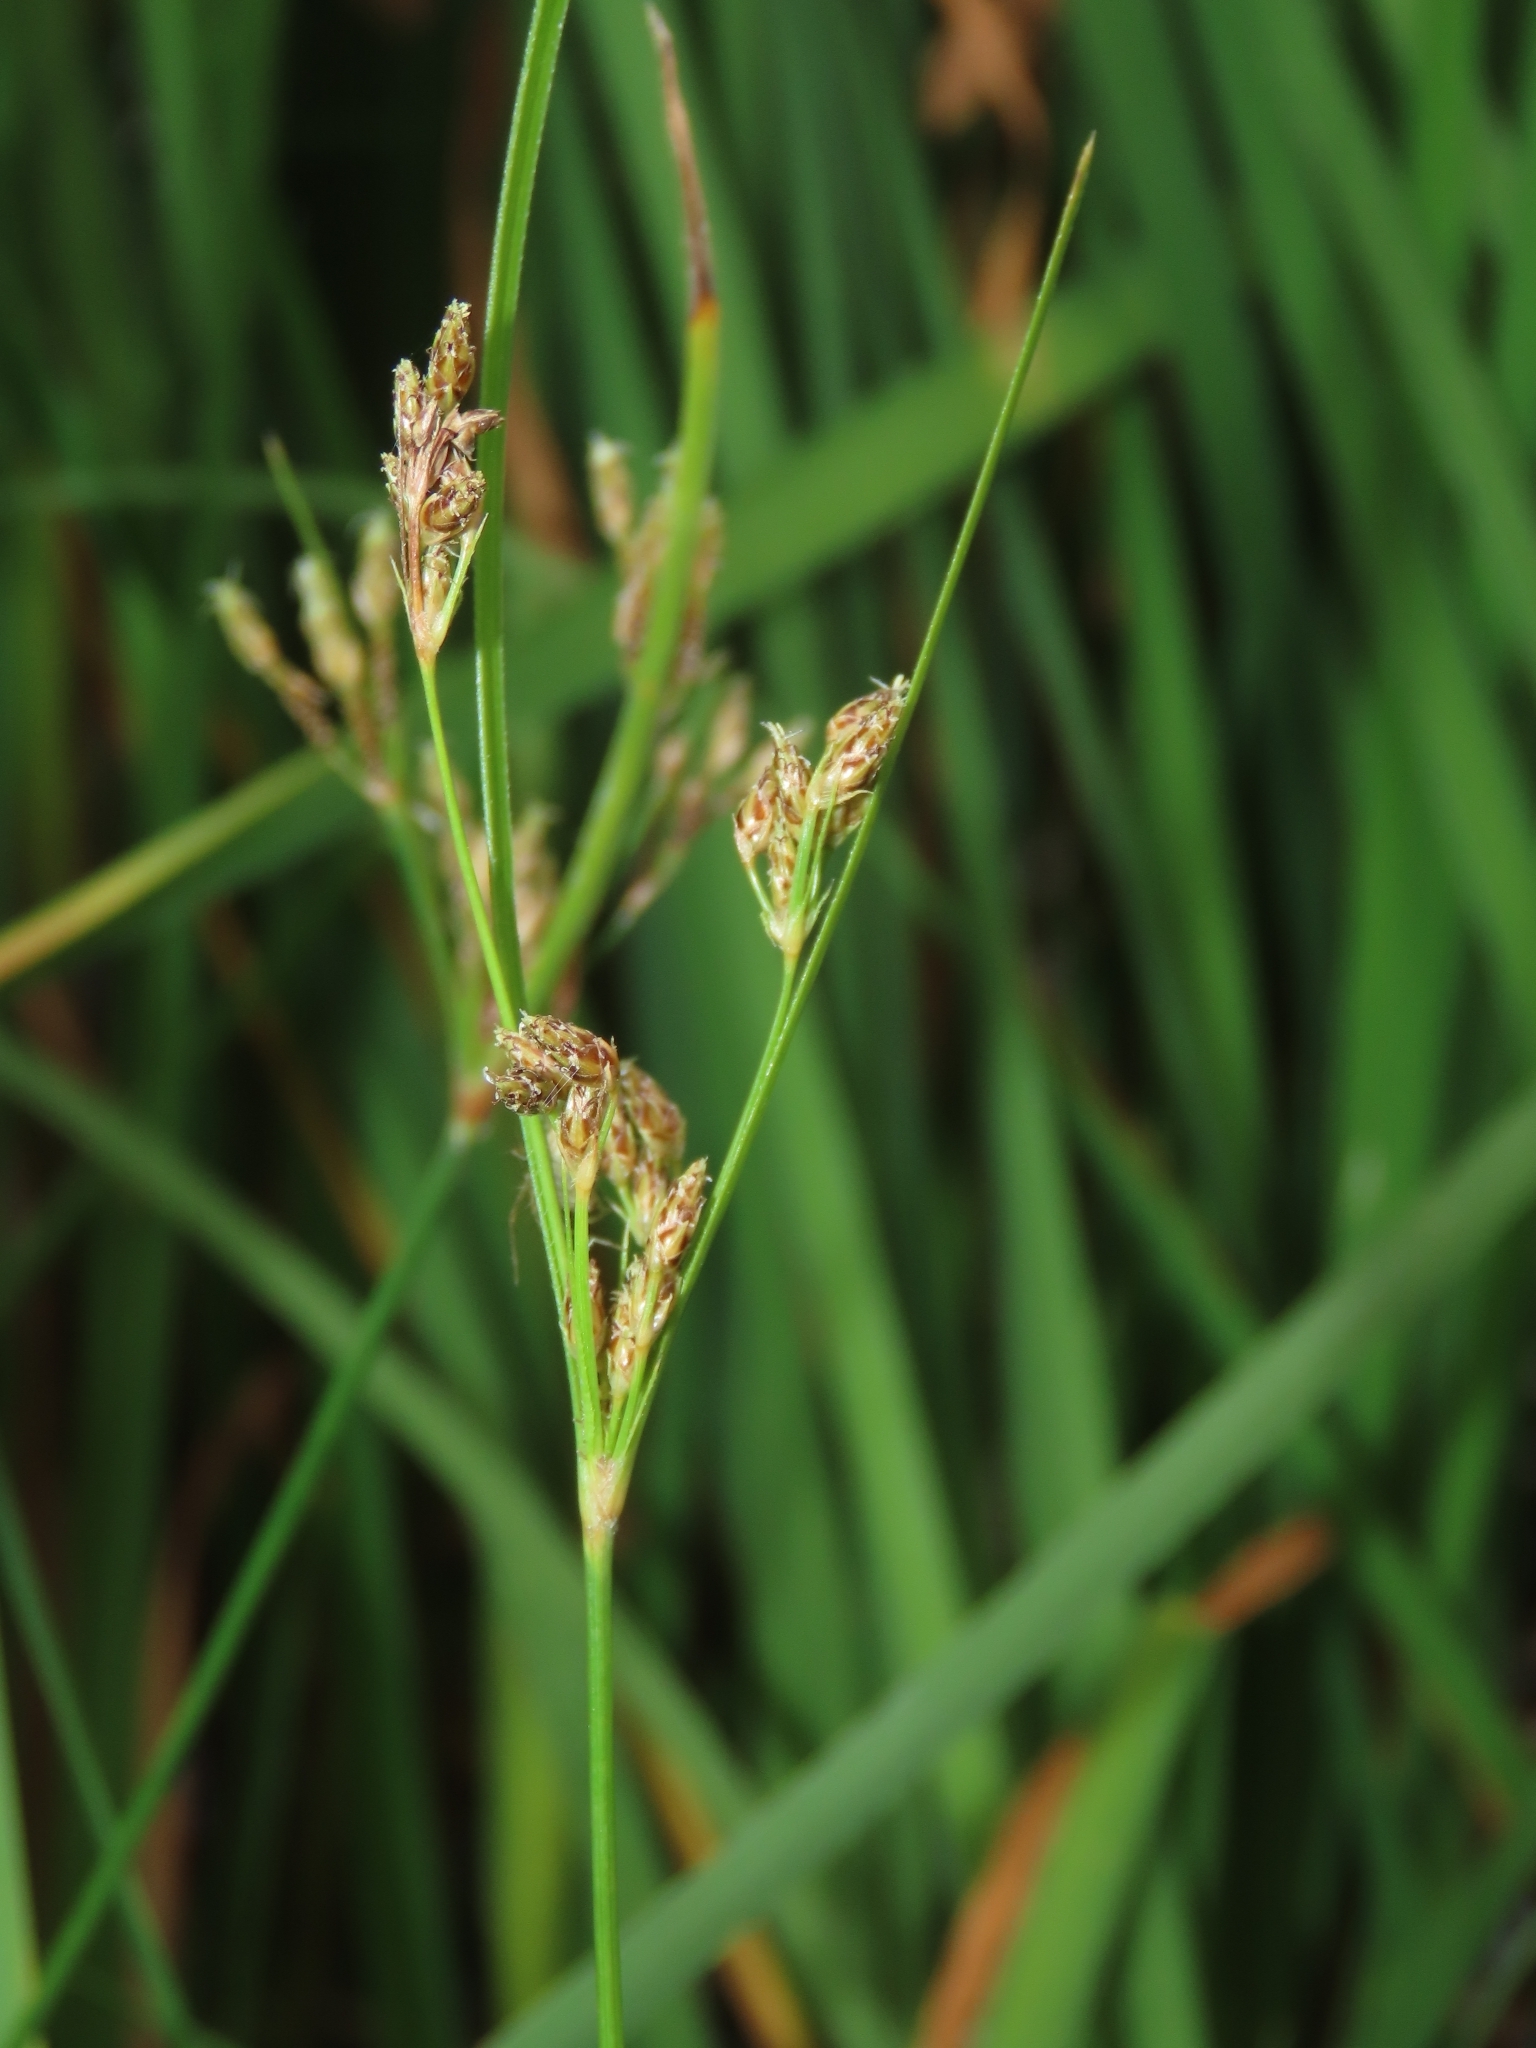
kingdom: Plantae
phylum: Tracheophyta
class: Liliopsida
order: Poales
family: Cyperaceae
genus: Fimbristylis
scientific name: Fimbristylis dichotoma
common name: Forked fimbry
